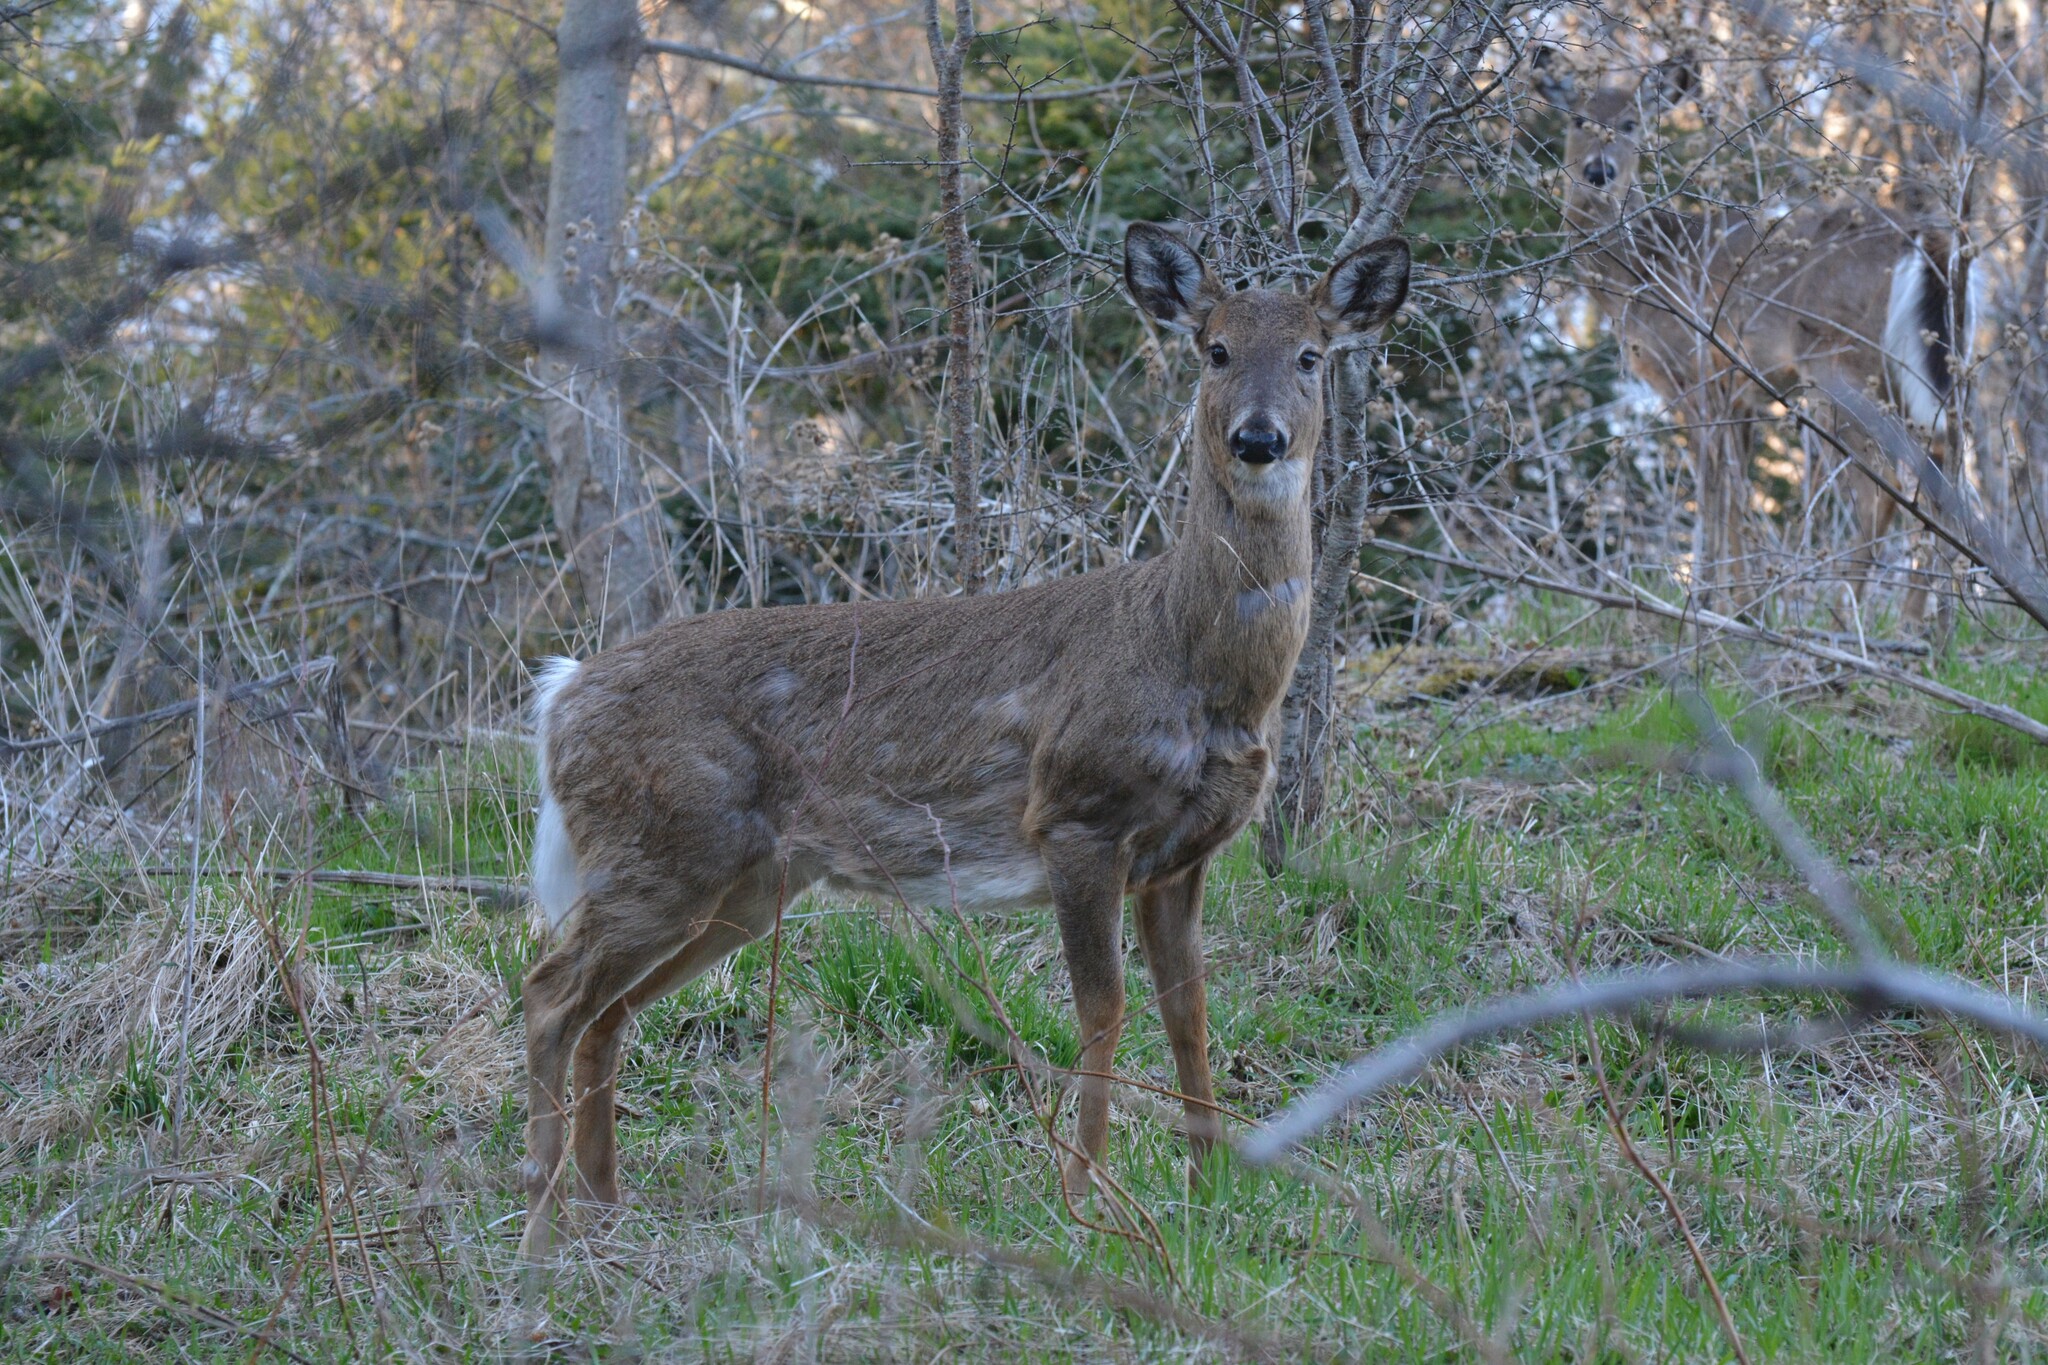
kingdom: Animalia
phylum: Chordata
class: Mammalia
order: Artiodactyla
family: Cervidae
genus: Odocoileus
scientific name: Odocoileus virginianus
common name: White-tailed deer
